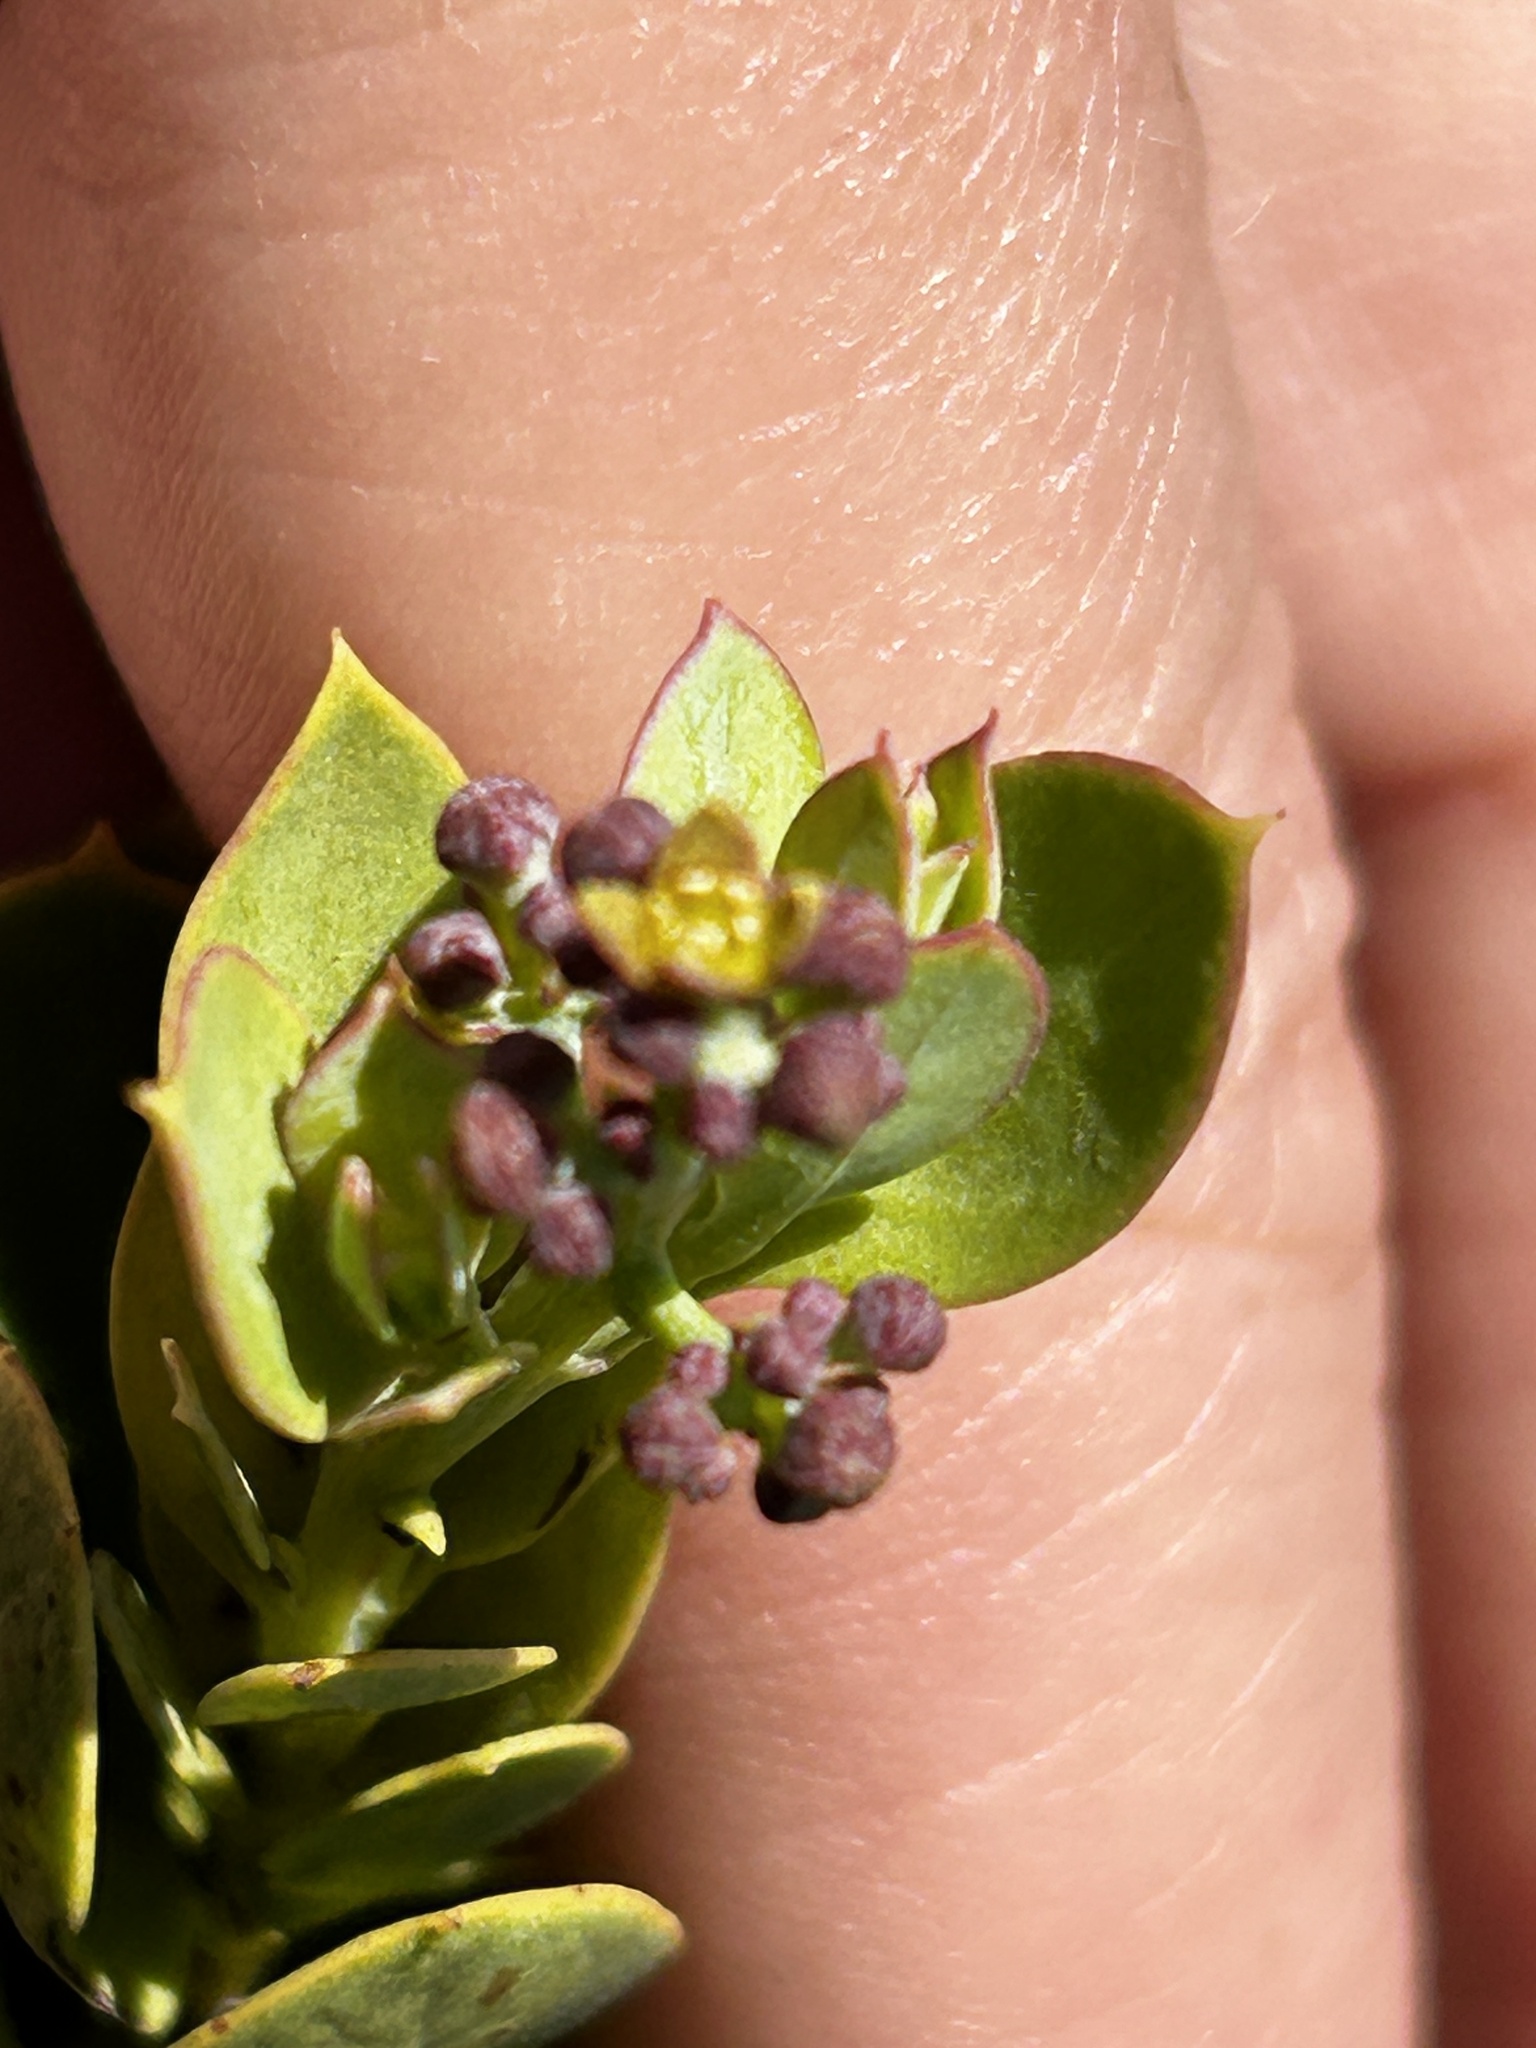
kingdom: Plantae
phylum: Tracheophyta
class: Magnoliopsida
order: Santalales
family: Santalaceae
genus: Osyris
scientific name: Osyris compressa
